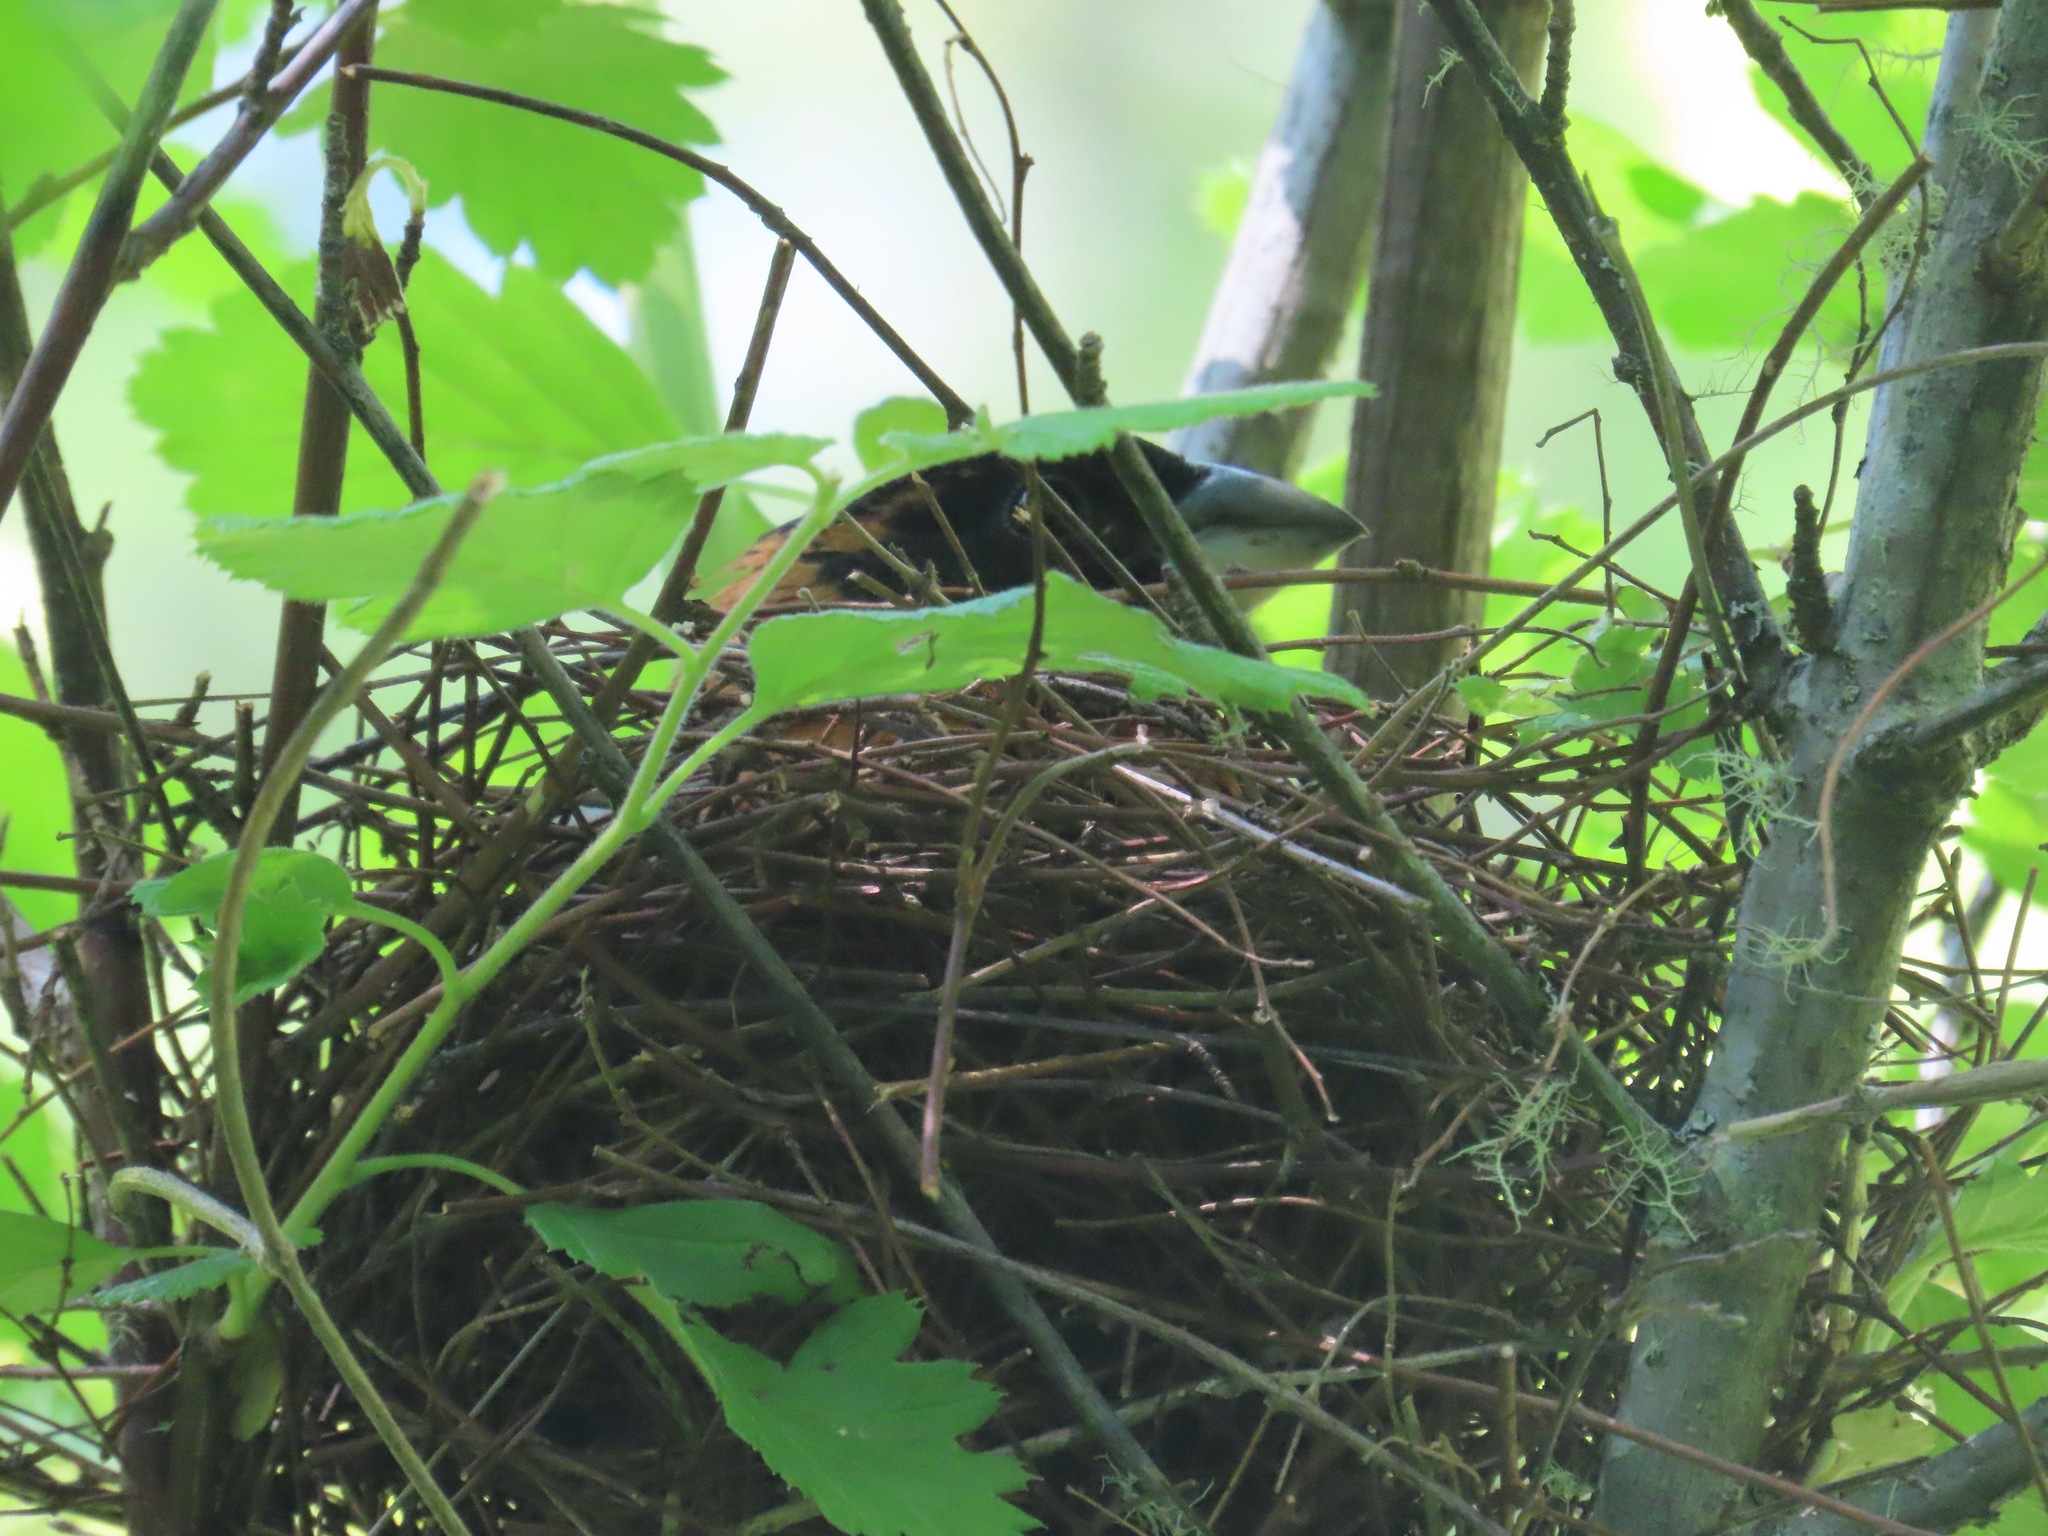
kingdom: Animalia
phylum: Chordata
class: Aves
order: Passeriformes
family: Cardinalidae
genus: Pheucticus
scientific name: Pheucticus melanocephalus
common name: Black-headed grosbeak
